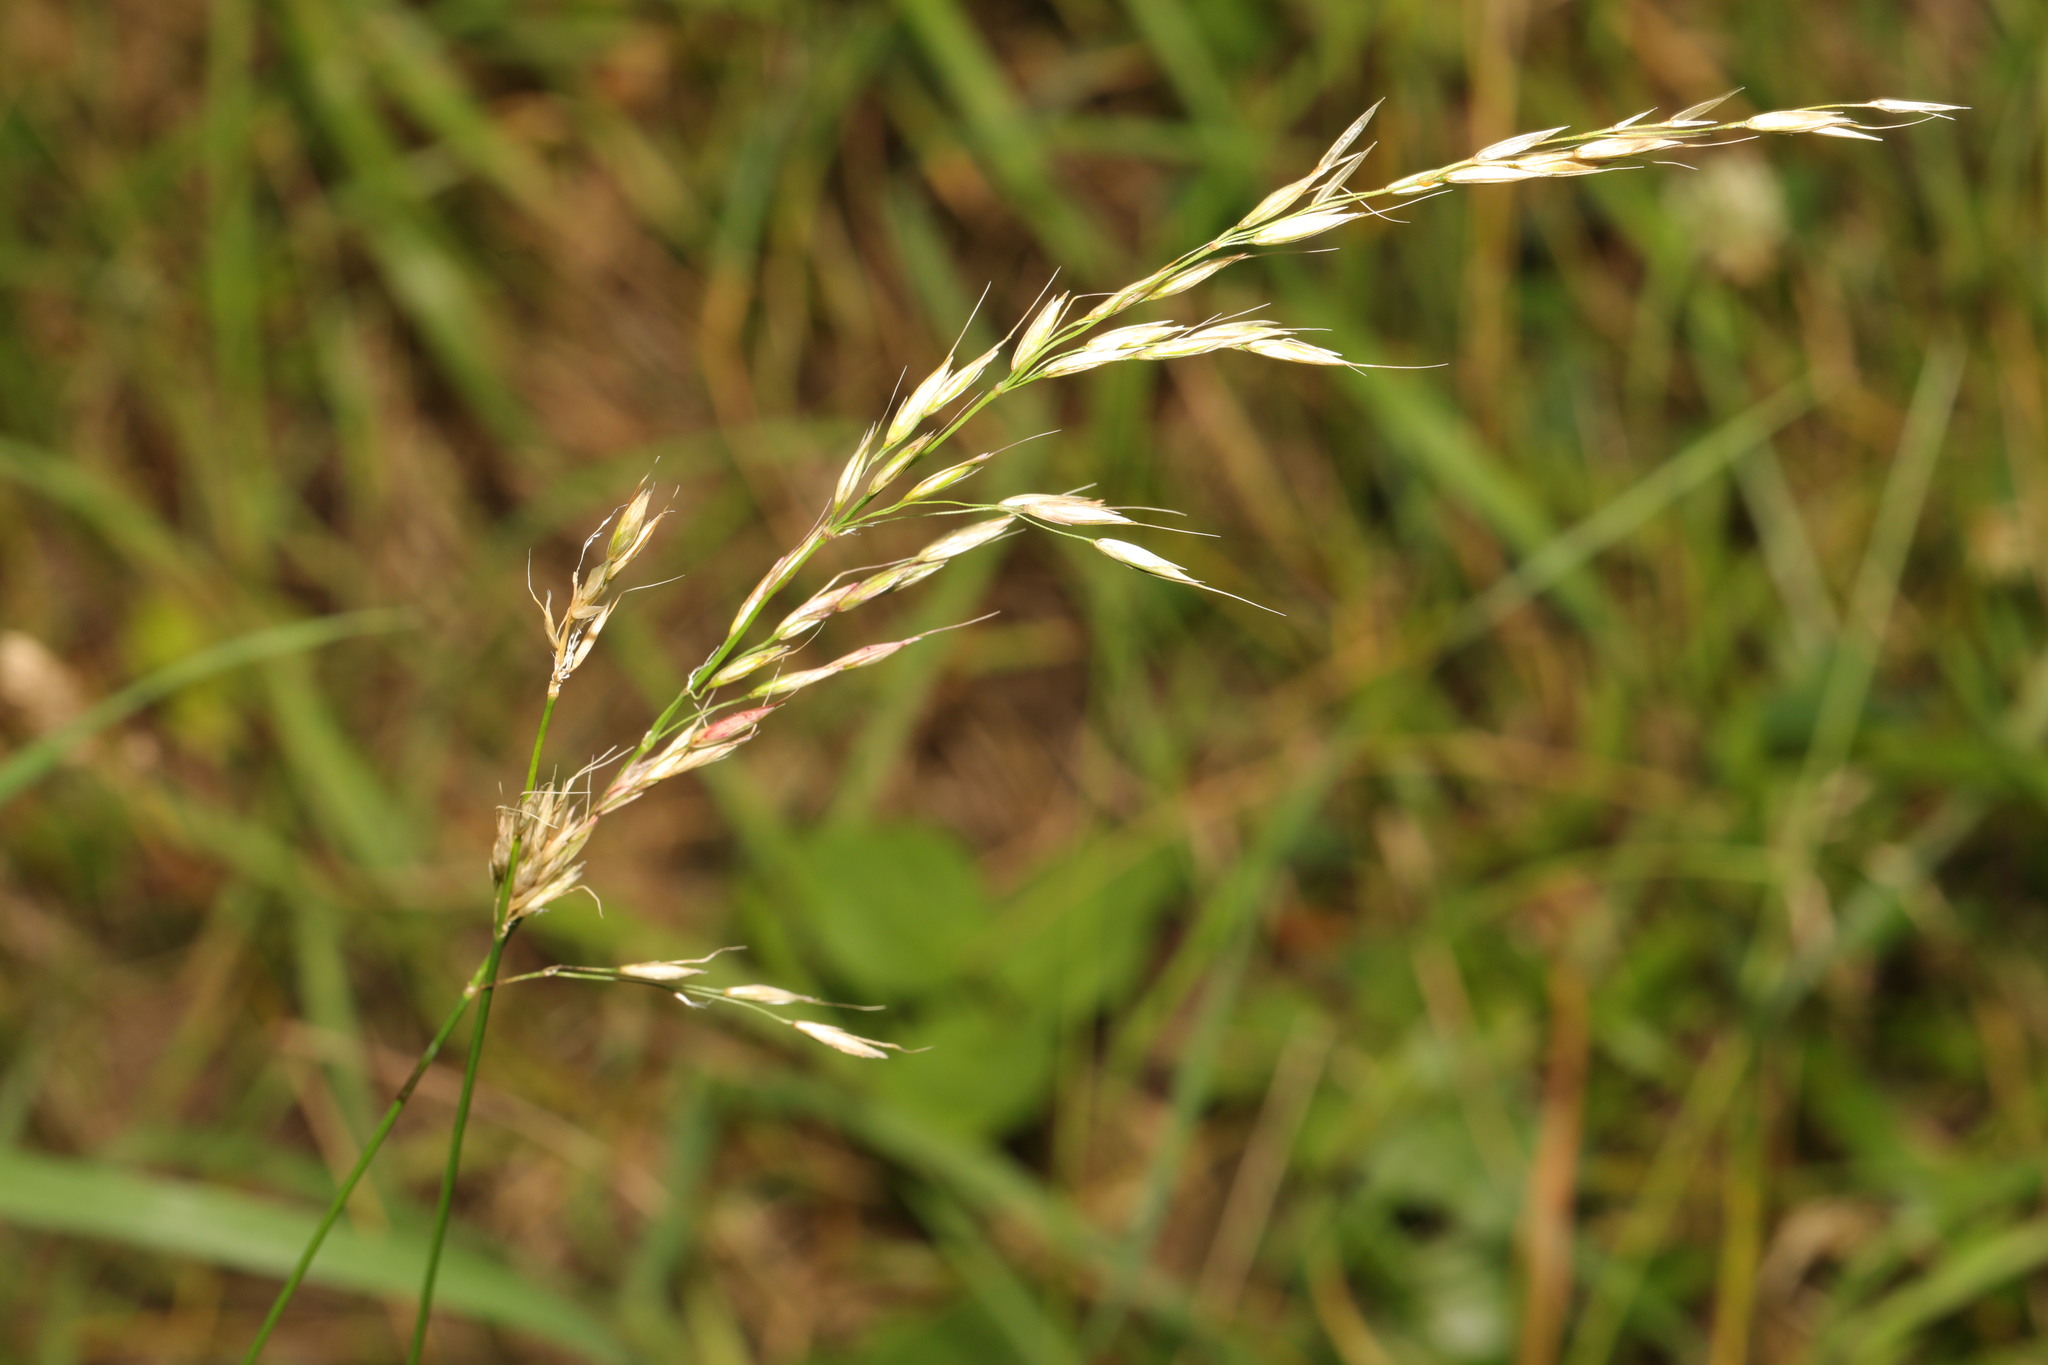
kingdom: Plantae
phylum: Tracheophyta
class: Liliopsida
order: Poales
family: Poaceae
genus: Arrhenatherum
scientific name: Arrhenatherum elatius
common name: Tall oatgrass
